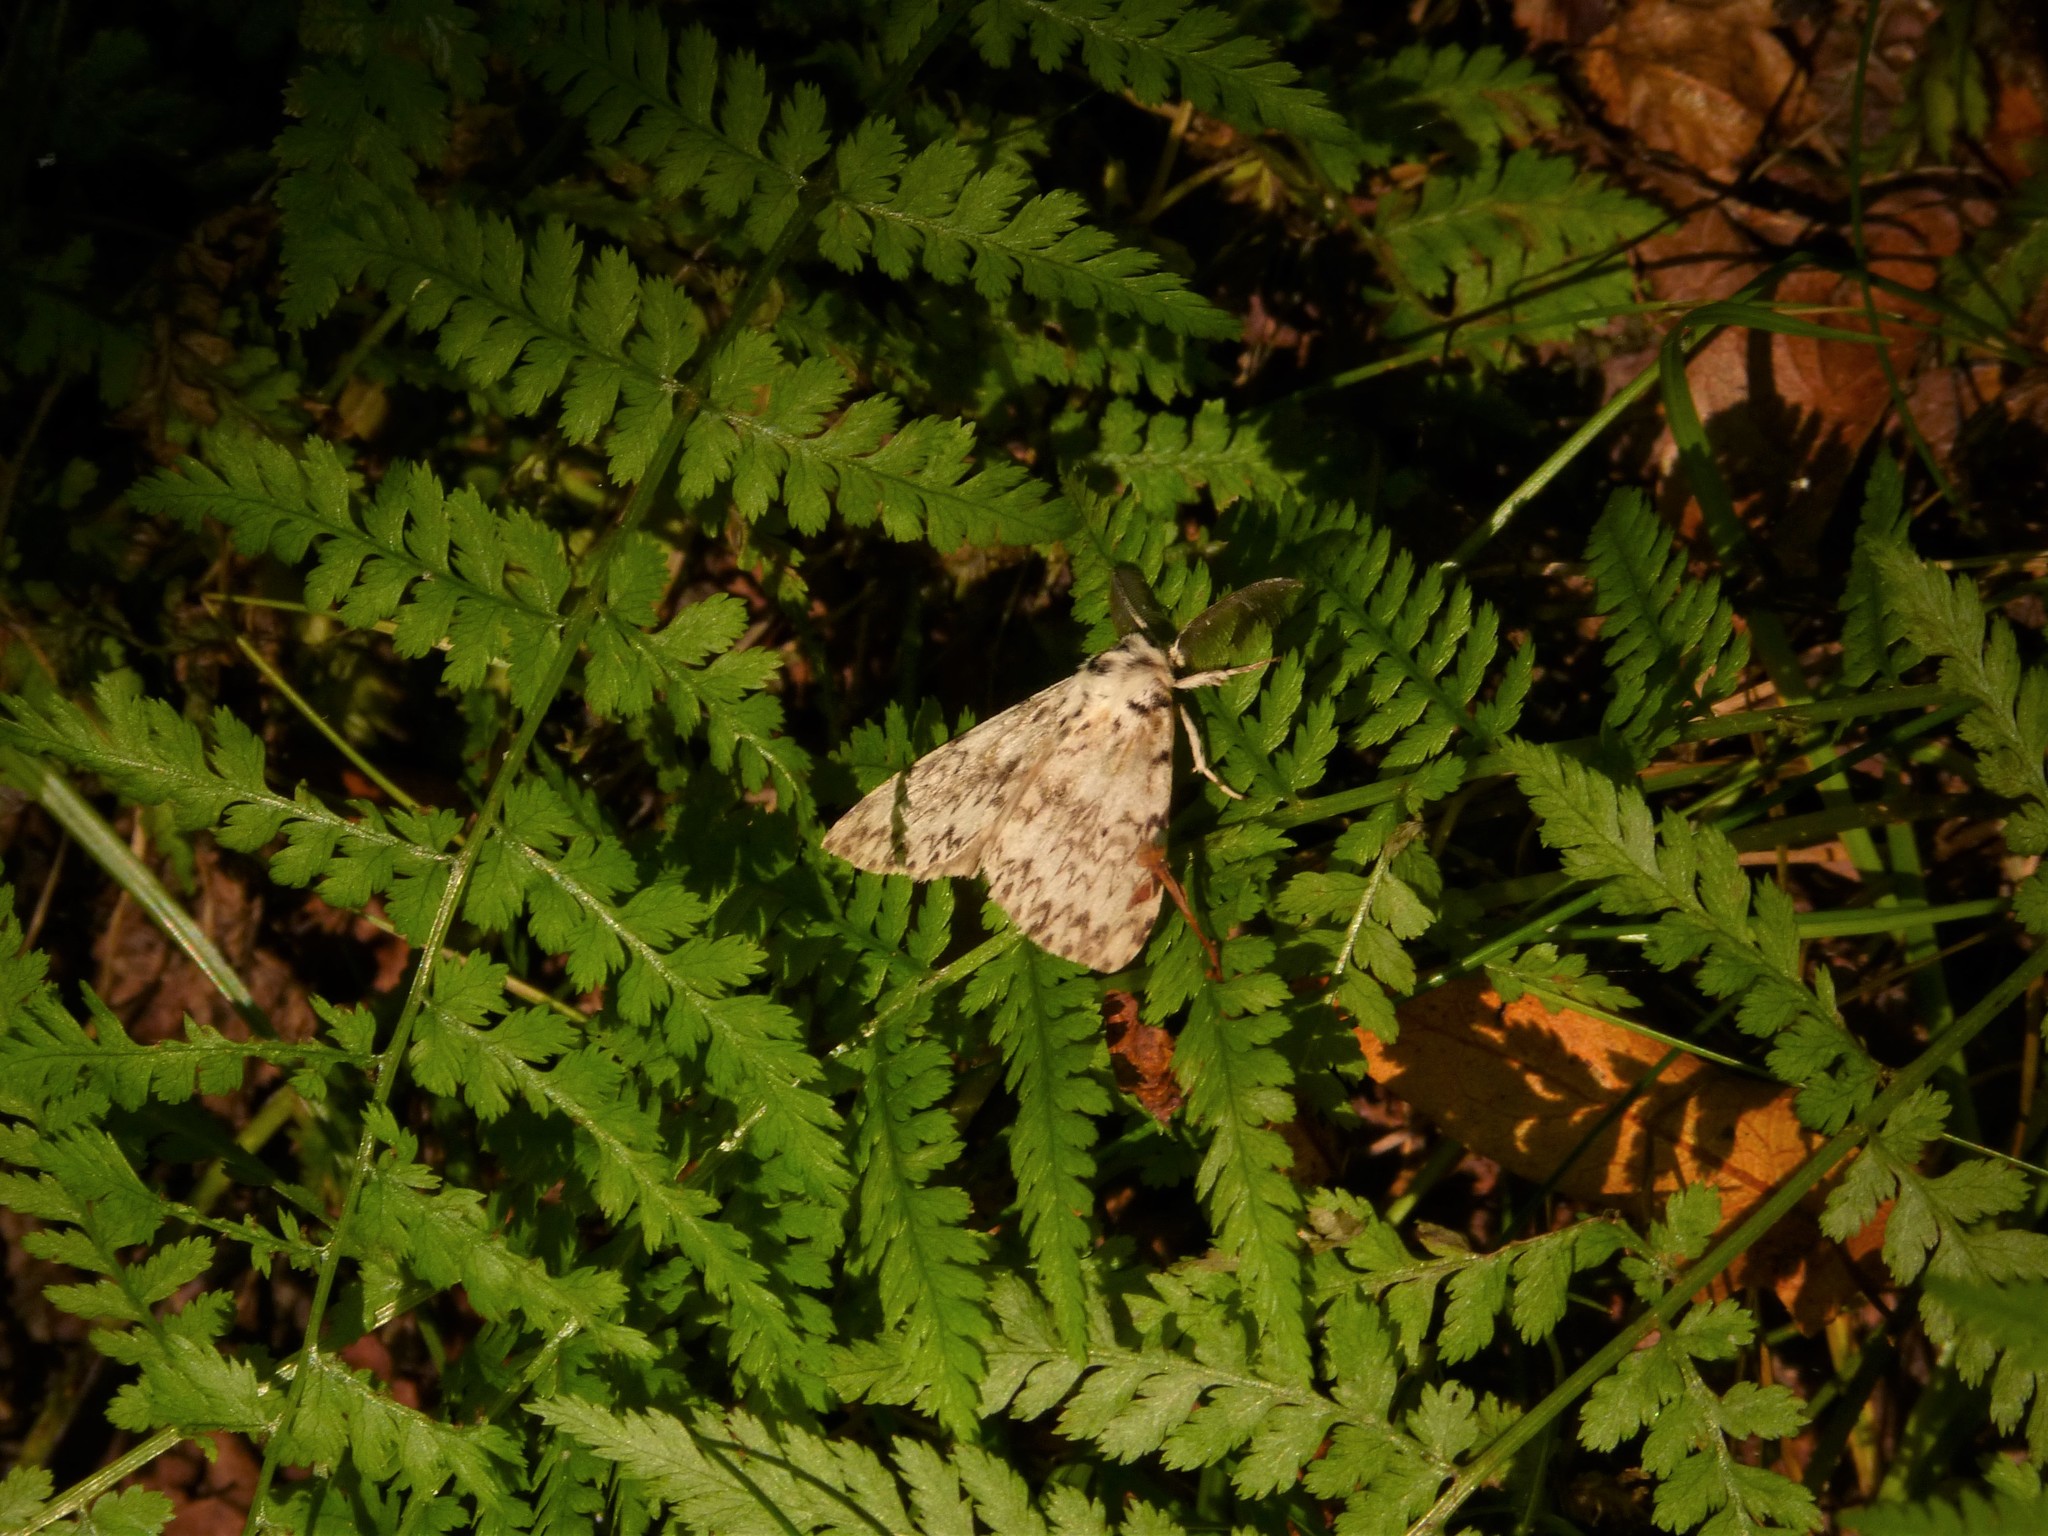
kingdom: Animalia
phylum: Arthropoda
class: Insecta
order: Lepidoptera
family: Erebidae
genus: Lymantria
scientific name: Lymantria monacha
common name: Black arches
